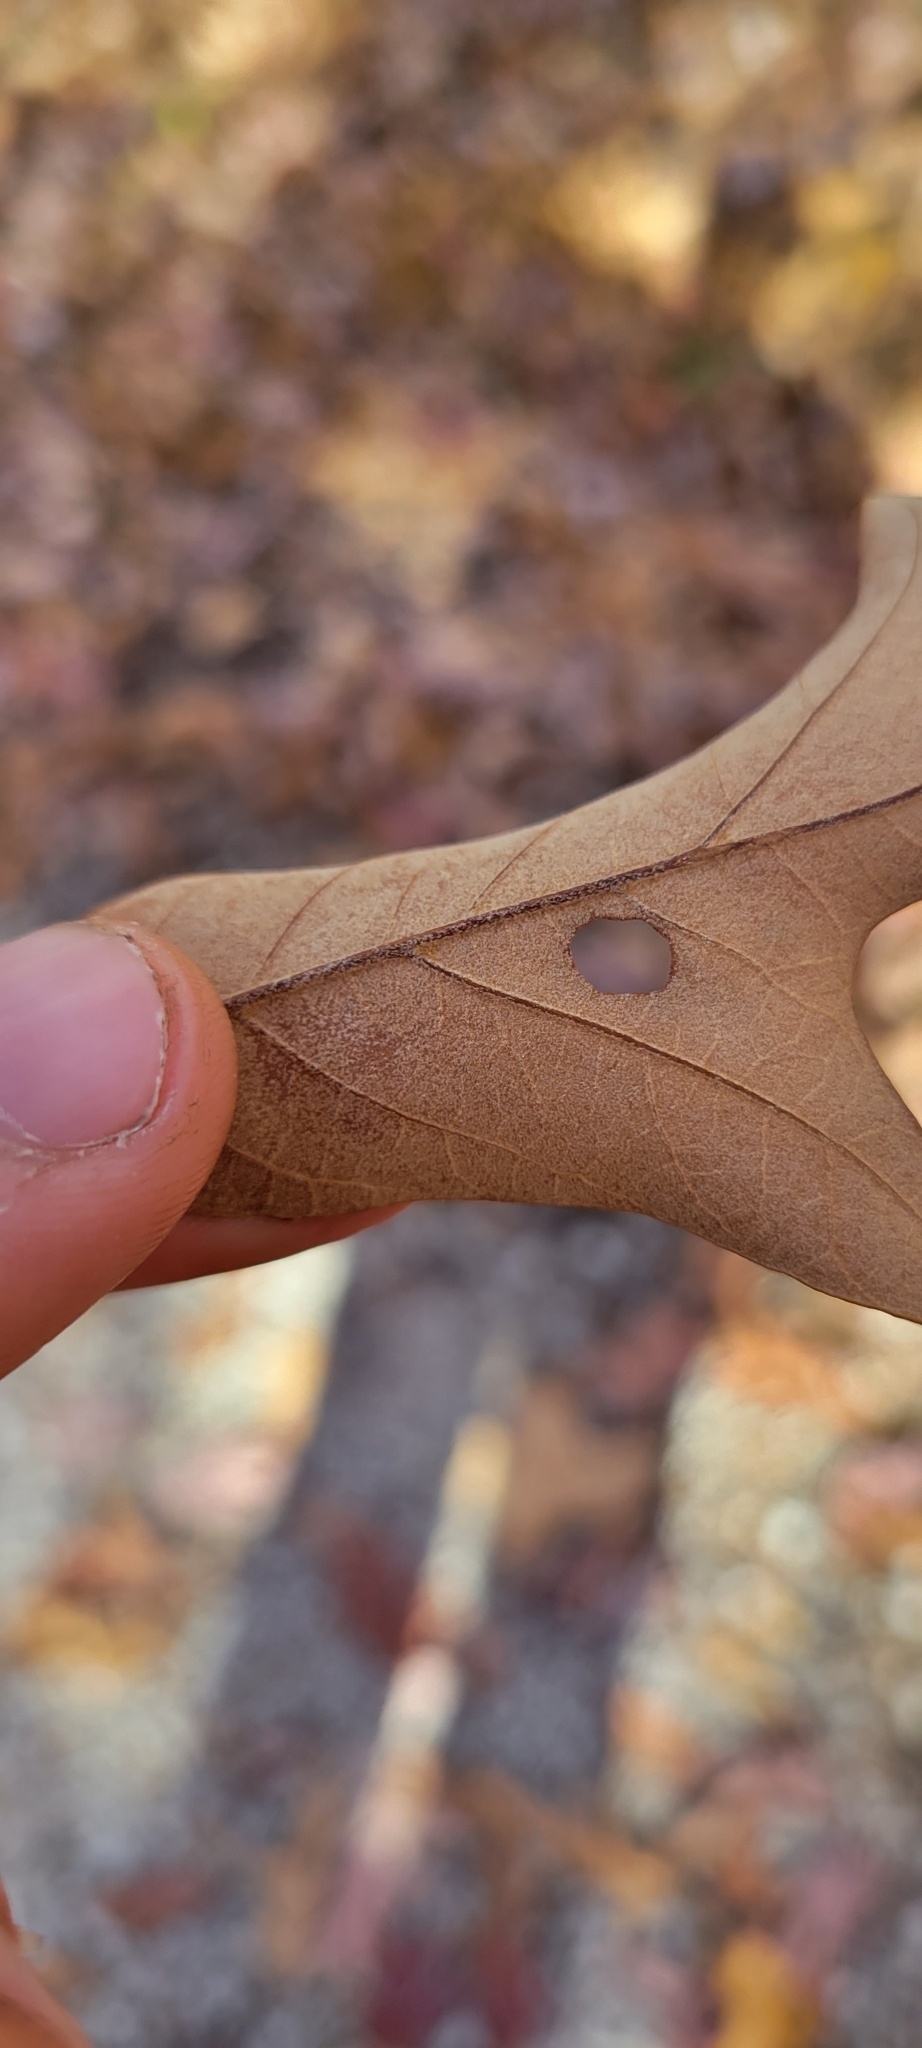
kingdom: Plantae
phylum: Tracheophyta
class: Magnoliopsida
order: Fagales
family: Fagaceae
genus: Quercus
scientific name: Quercus falcata
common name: Southern red oak
